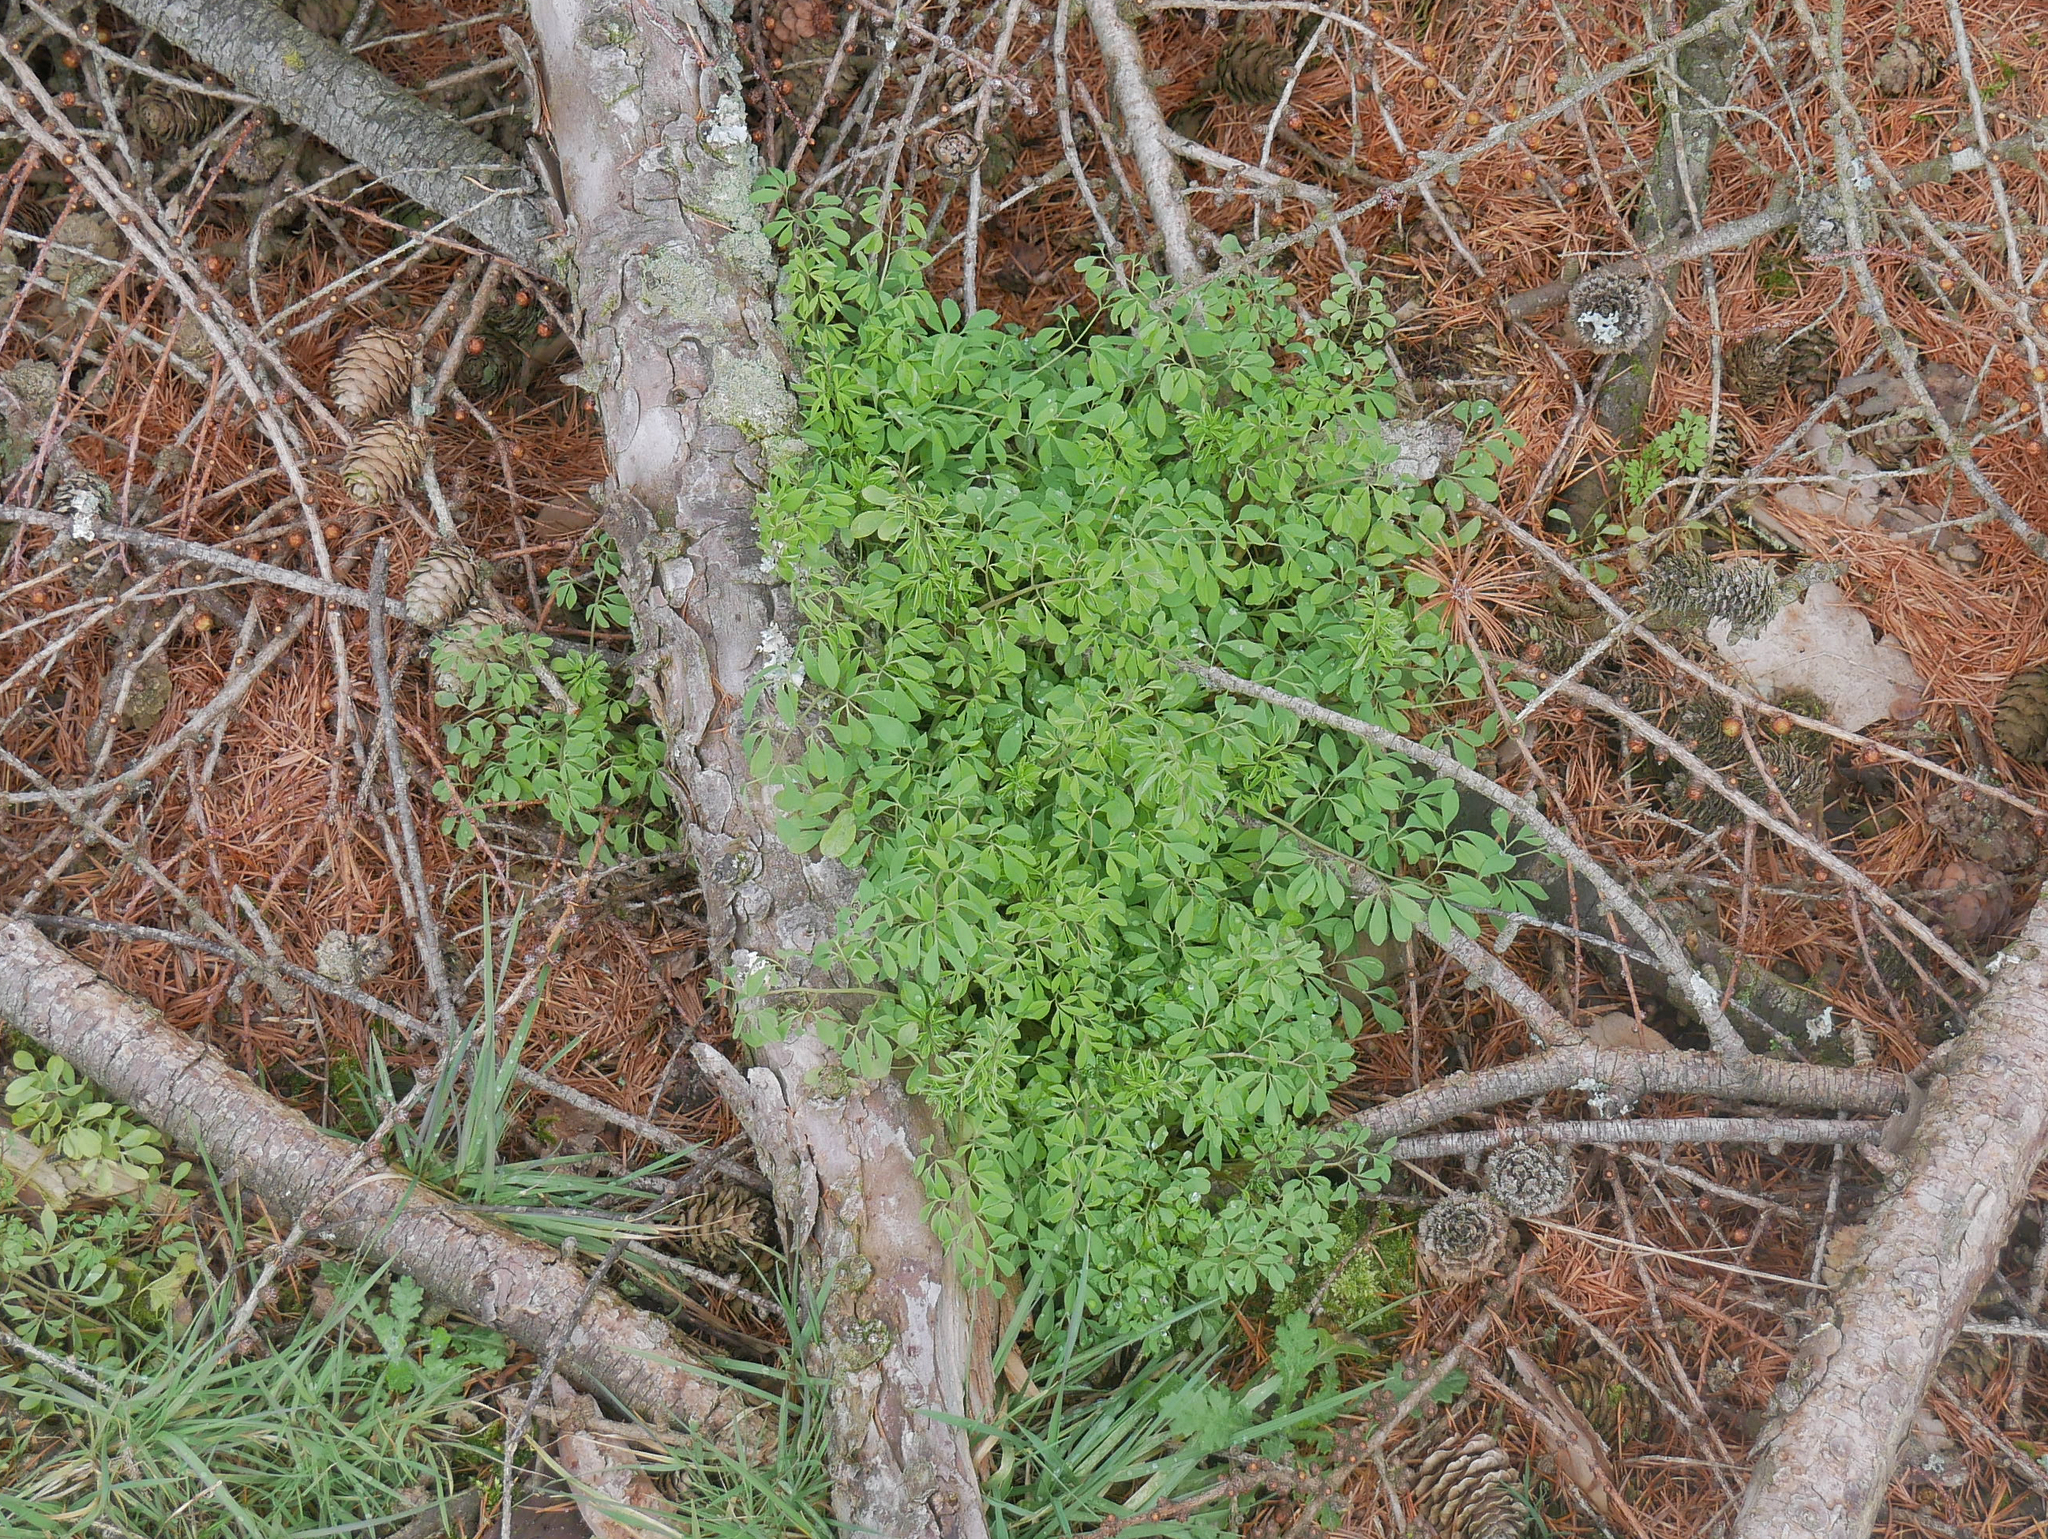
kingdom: Plantae
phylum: Tracheophyta
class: Magnoliopsida
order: Ranunculales
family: Papaveraceae
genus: Ceratocapnos
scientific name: Ceratocapnos claviculata
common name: Climbing corydalis
